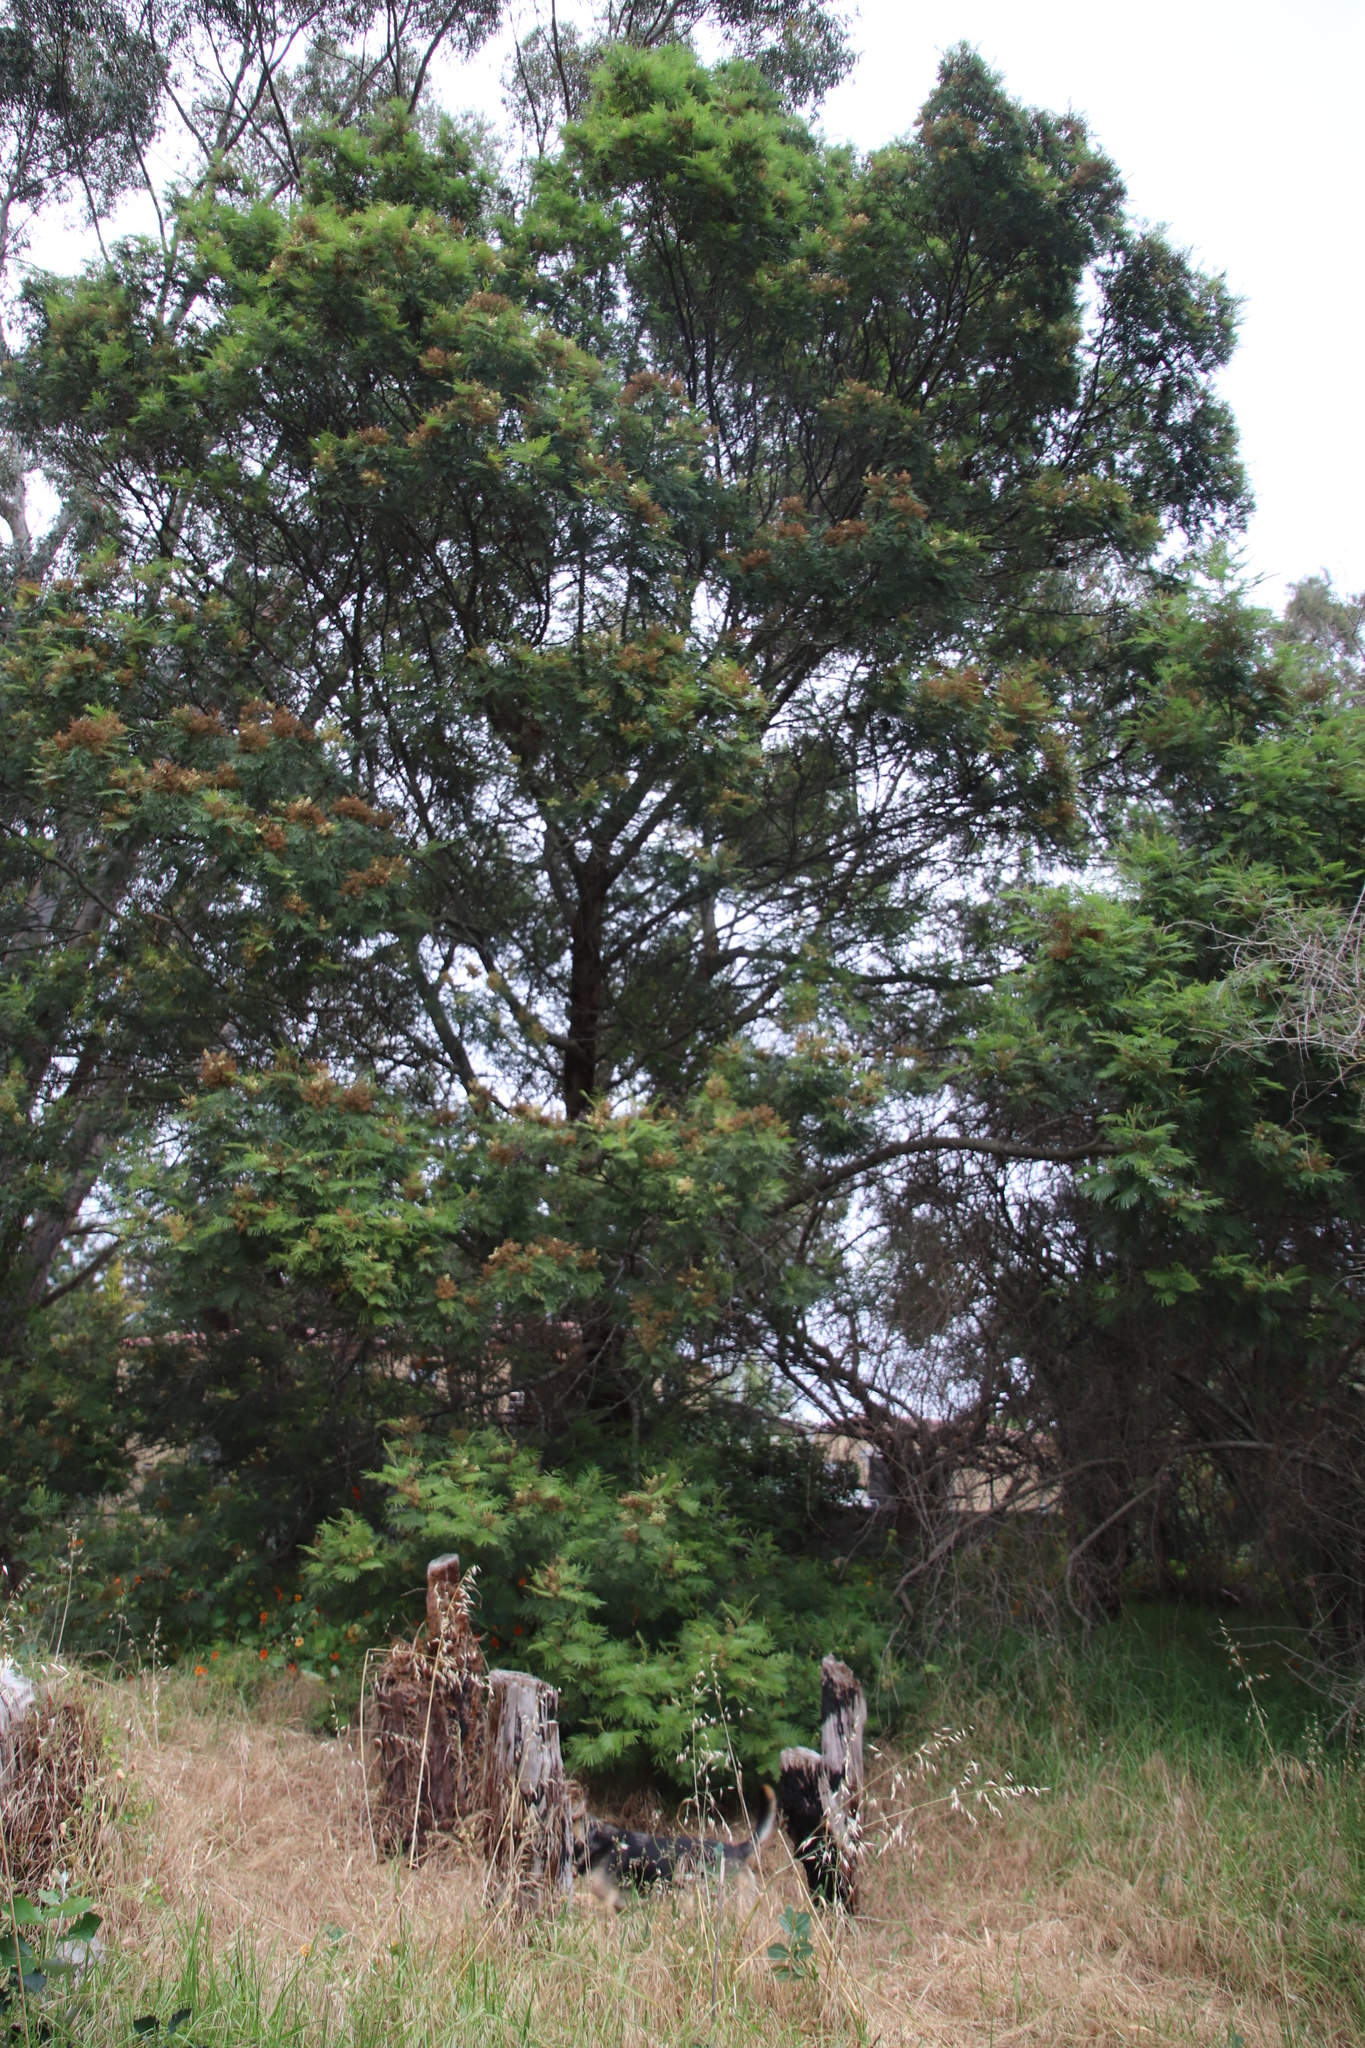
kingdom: Plantae
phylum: Tracheophyta
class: Magnoliopsida
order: Fabales
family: Fabaceae
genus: Acacia
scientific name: Acacia mearnsii
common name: Black wattle
